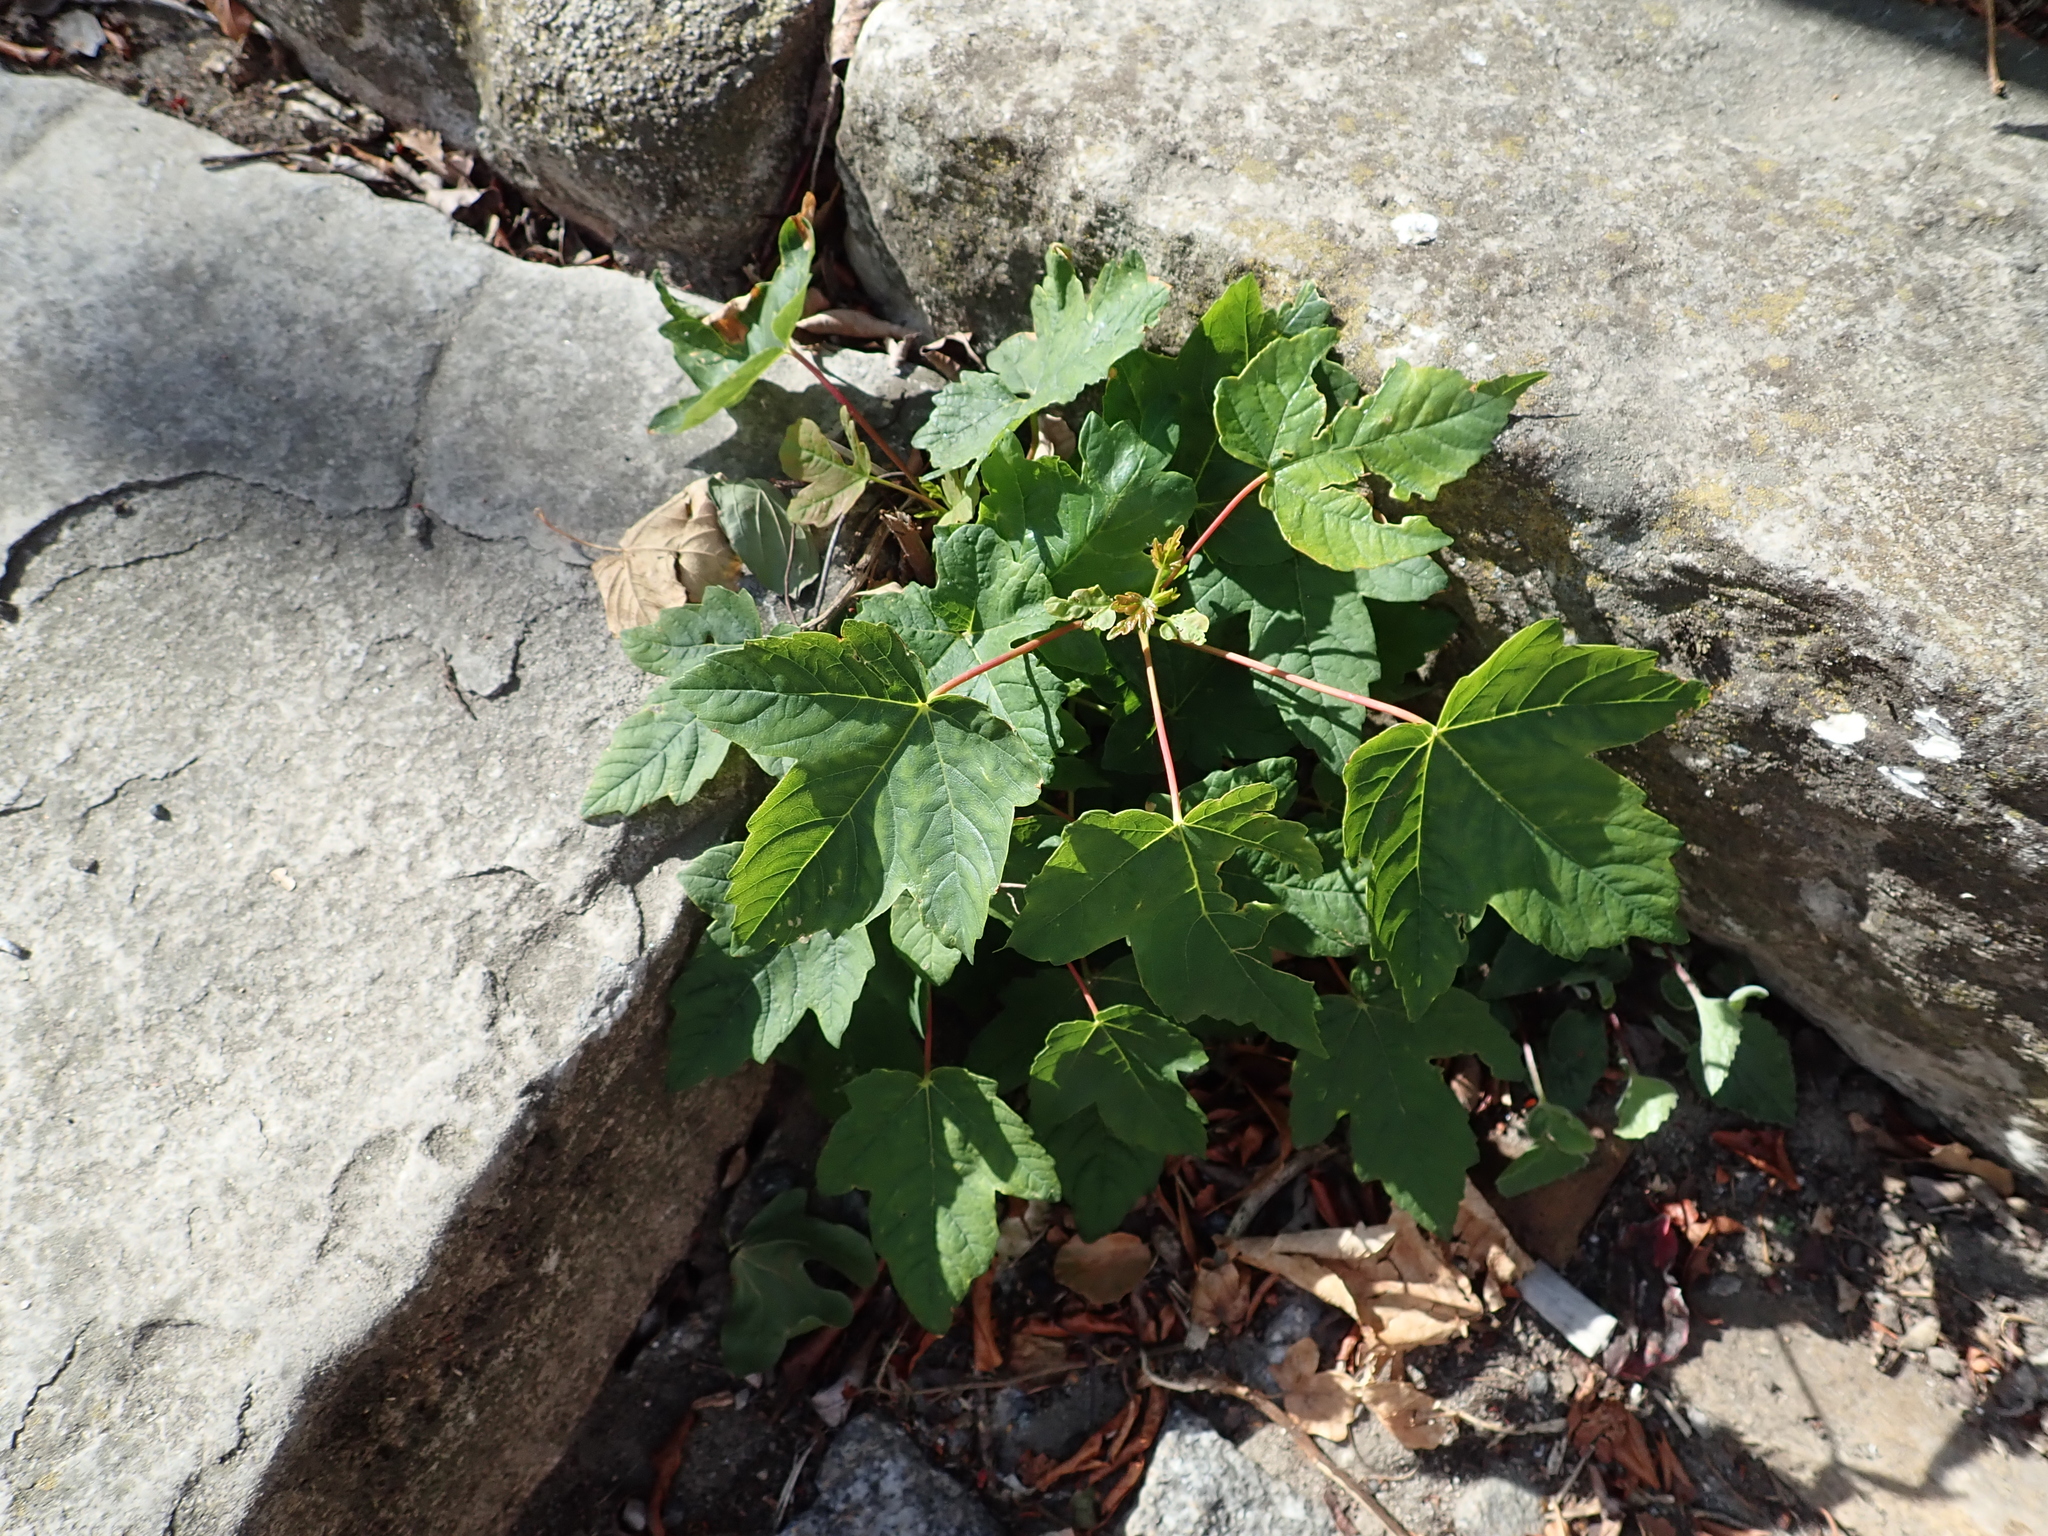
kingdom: Plantae
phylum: Tracheophyta
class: Magnoliopsida
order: Sapindales
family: Sapindaceae
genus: Acer
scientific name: Acer pseudoplatanus
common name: Sycamore
